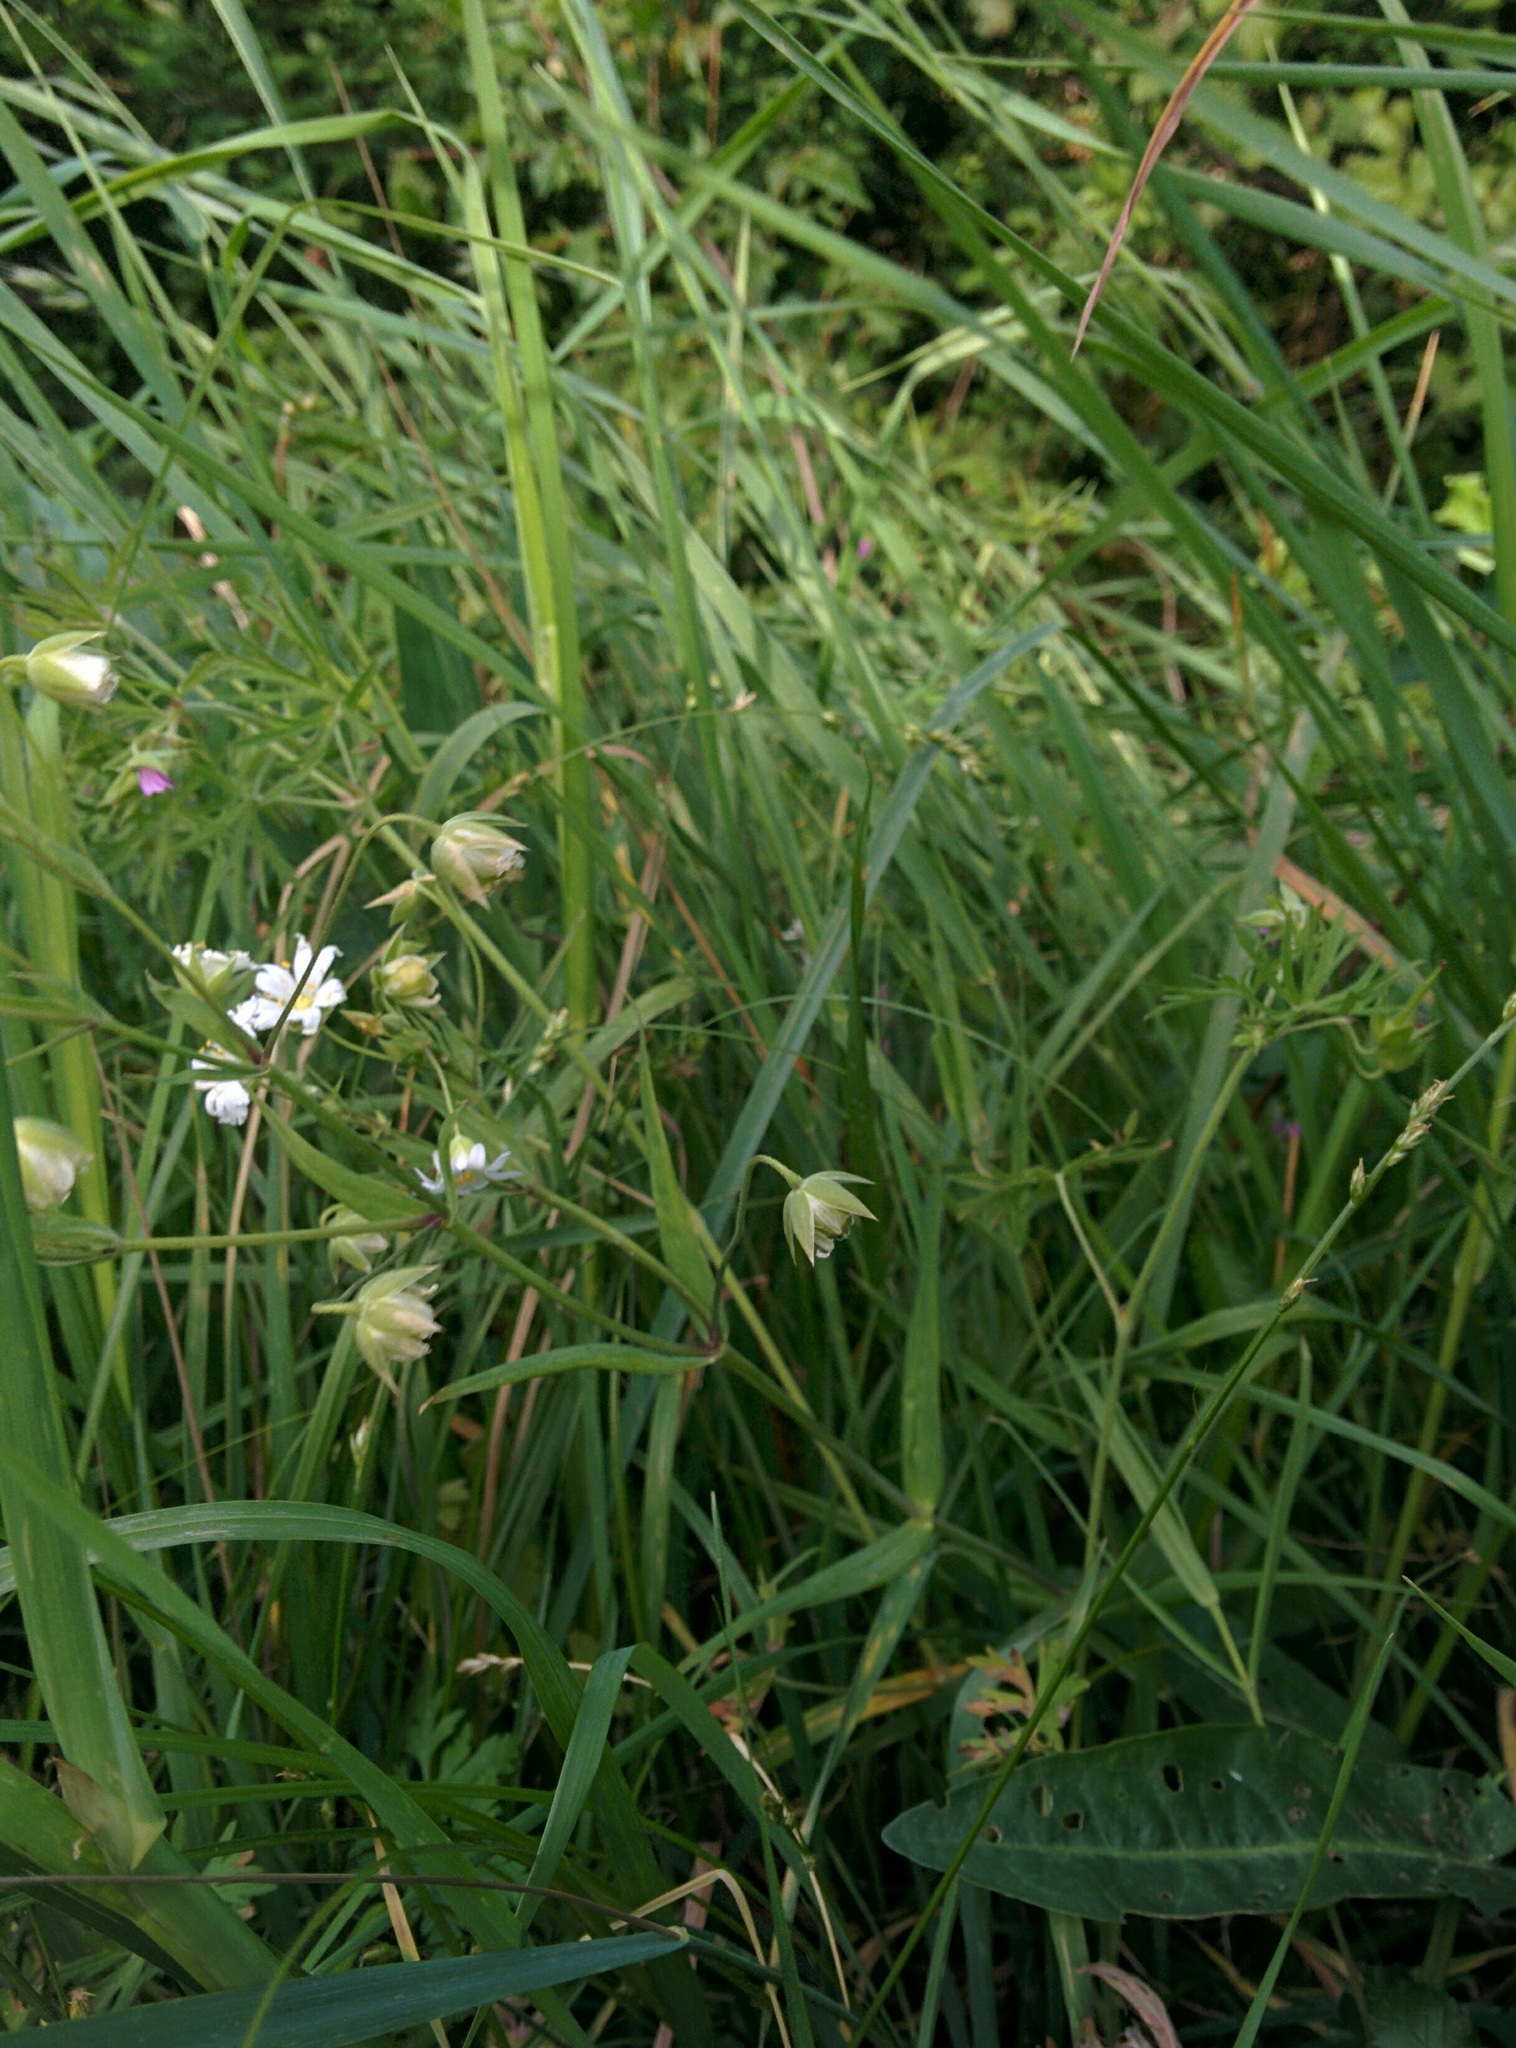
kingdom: Plantae
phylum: Tracheophyta
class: Magnoliopsida
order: Caryophyllales
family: Caryophyllaceae
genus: Rabelera
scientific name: Rabelera holostea
